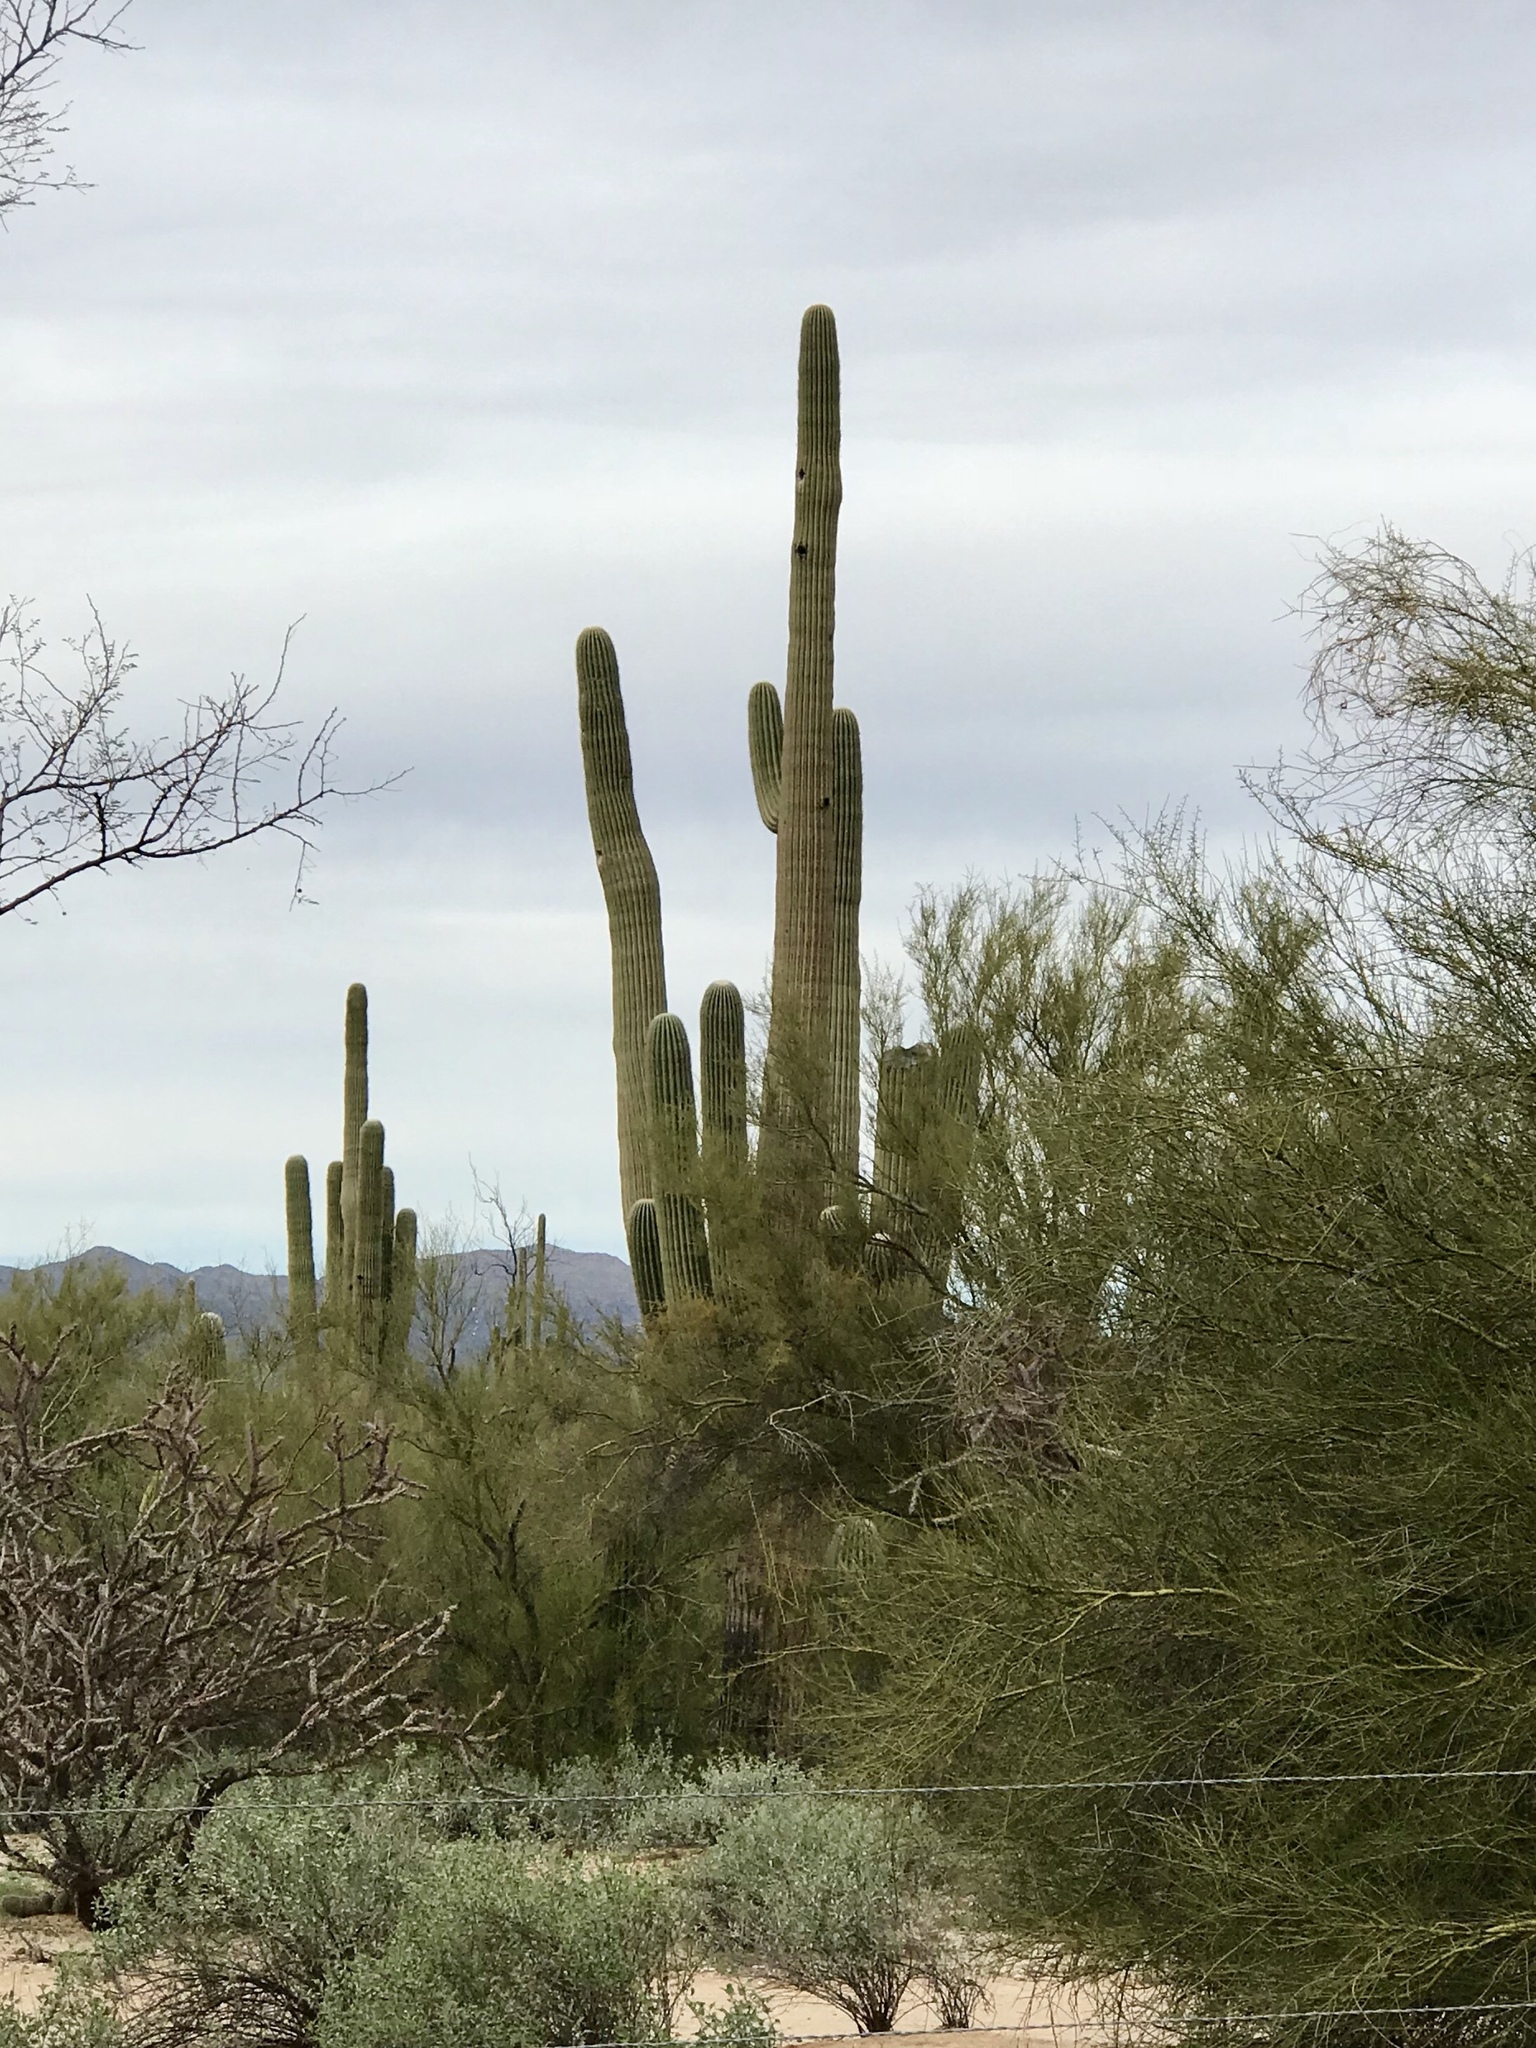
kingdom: Plantae
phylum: Tracheophyta
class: Magnoliopsida
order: Caryophyllales
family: Cactaceae
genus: Carnegiea
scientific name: Carnegiea gigantea
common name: Saguaro
